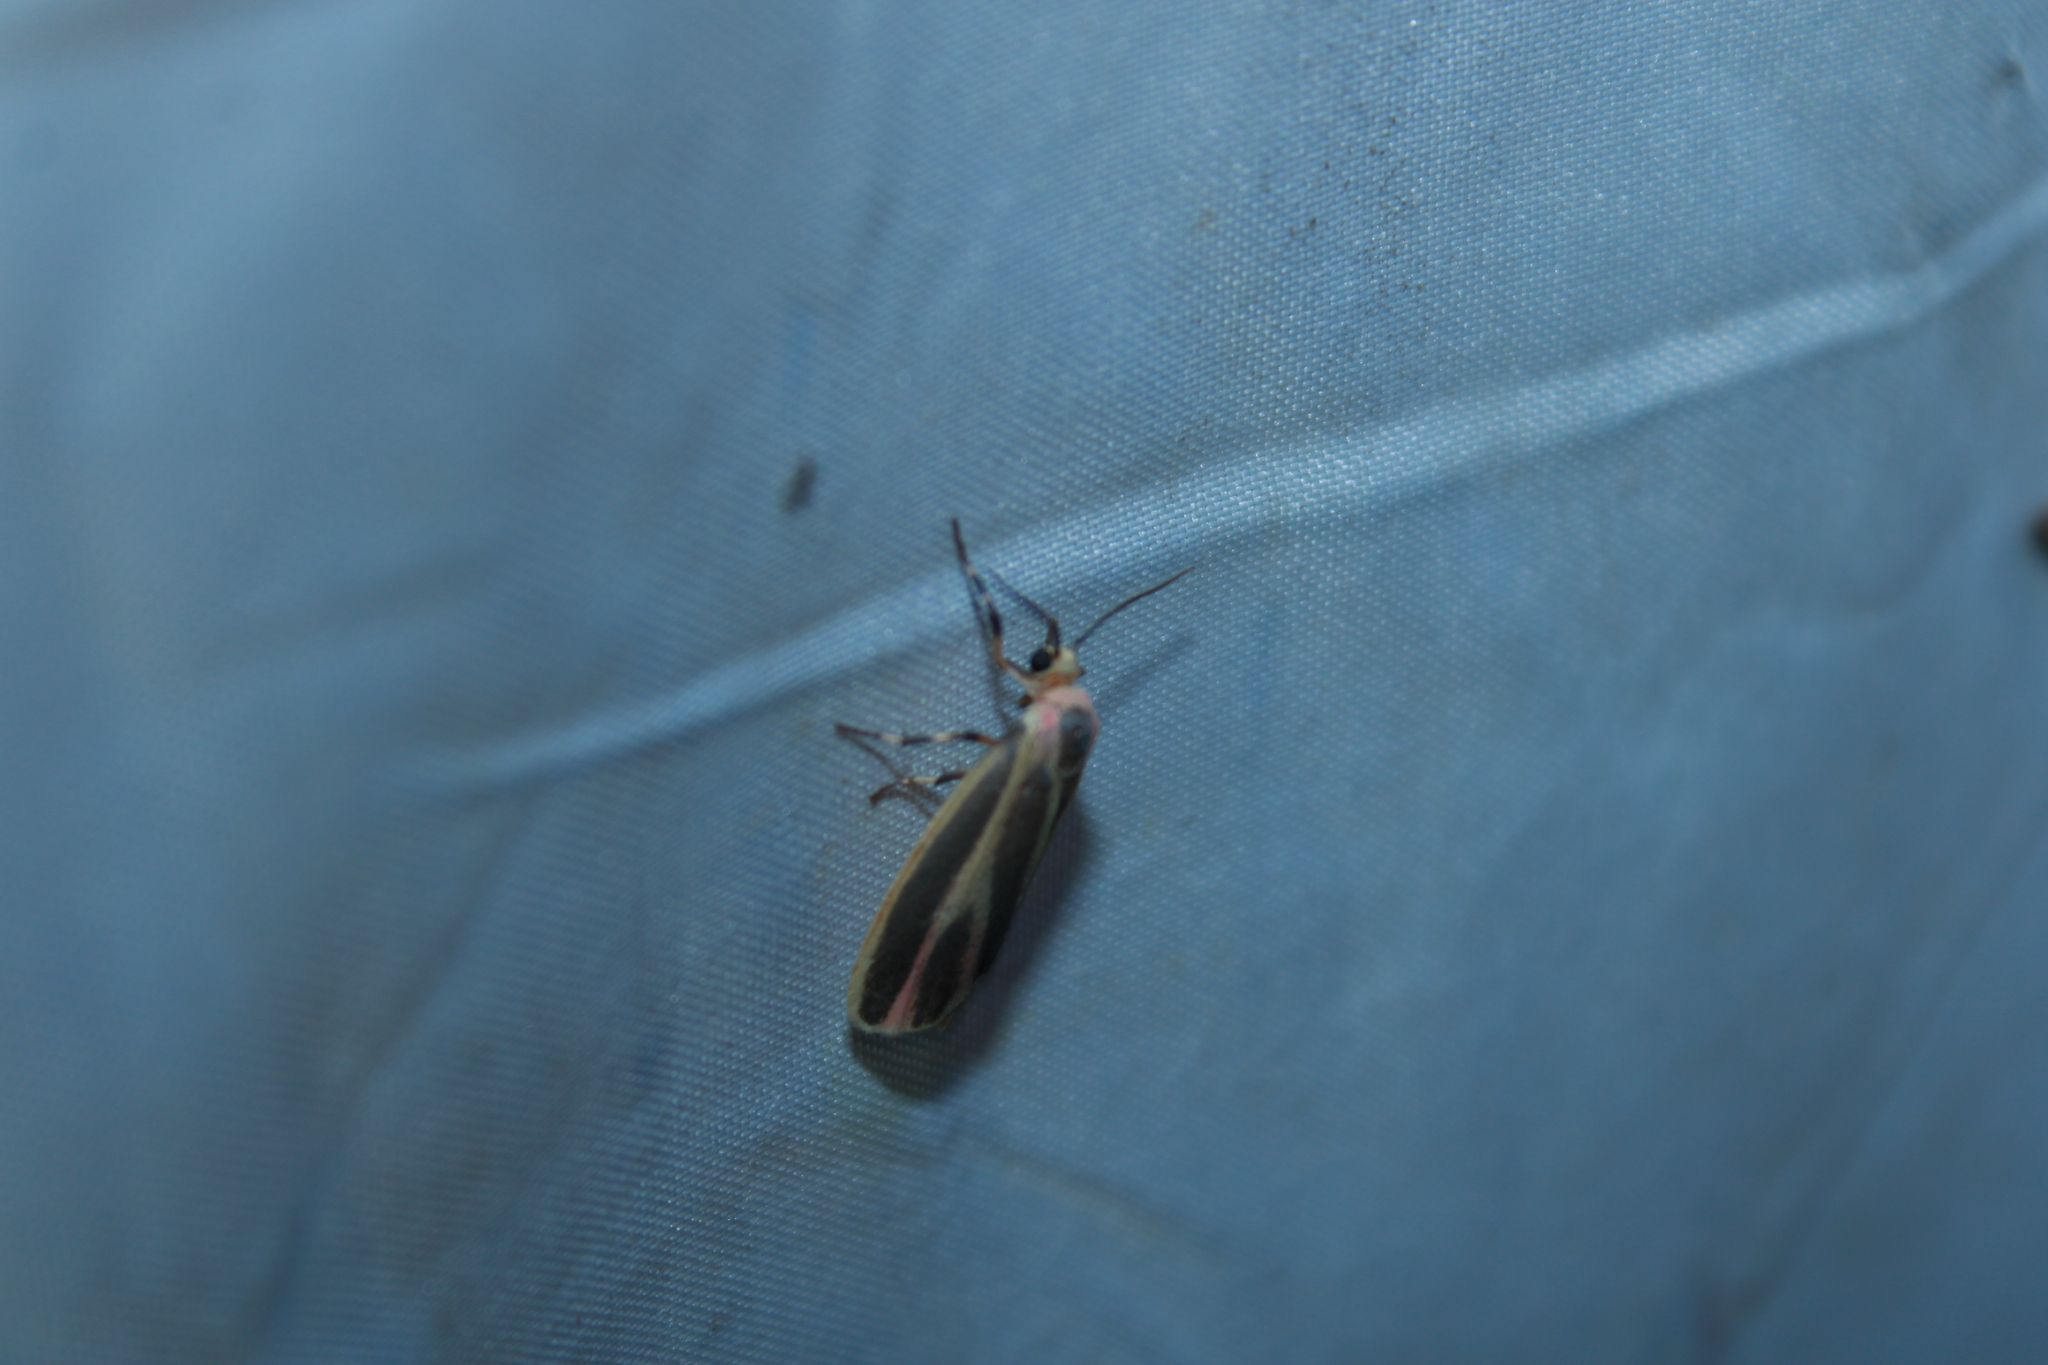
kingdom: Animalia
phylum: Arthropoda
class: Insecta
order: Lepidoptera
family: Erebidae
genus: Hypoprepia
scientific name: Hypoprepia fucosa
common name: Painted lichen moth
